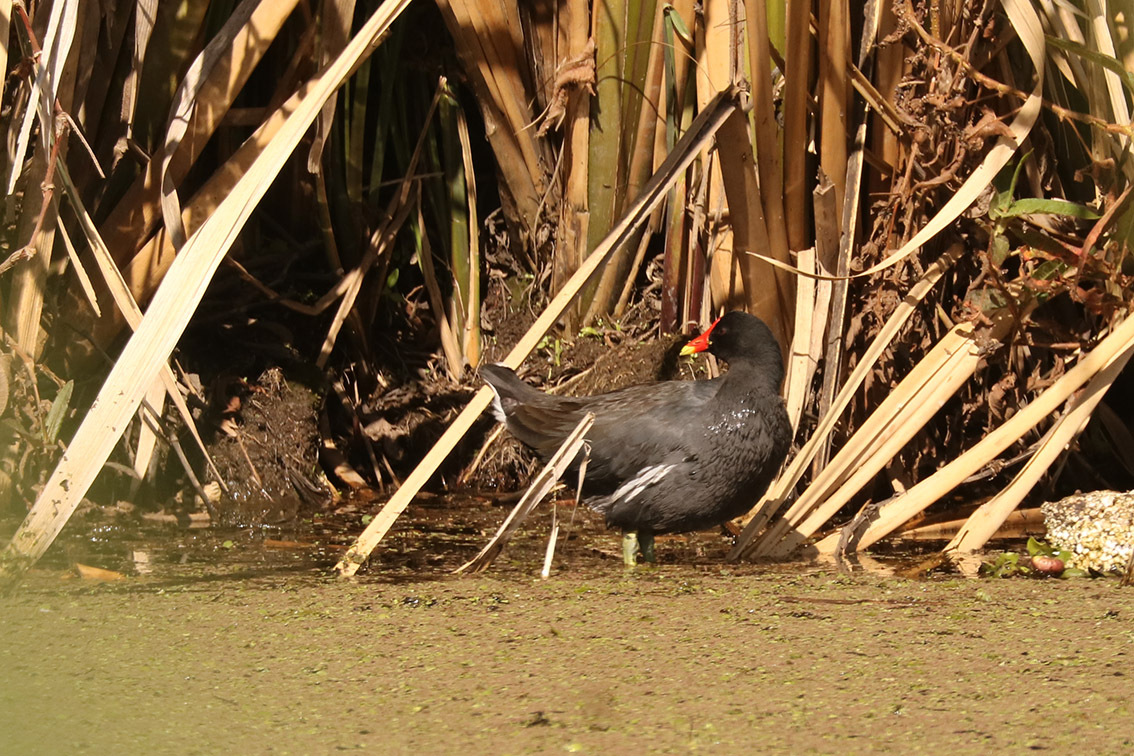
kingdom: Animalia
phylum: Chordata
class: Aves
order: Gruiformes
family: Rallidae
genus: Gallinula
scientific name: Gallinula chloropus
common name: Common moorhen
